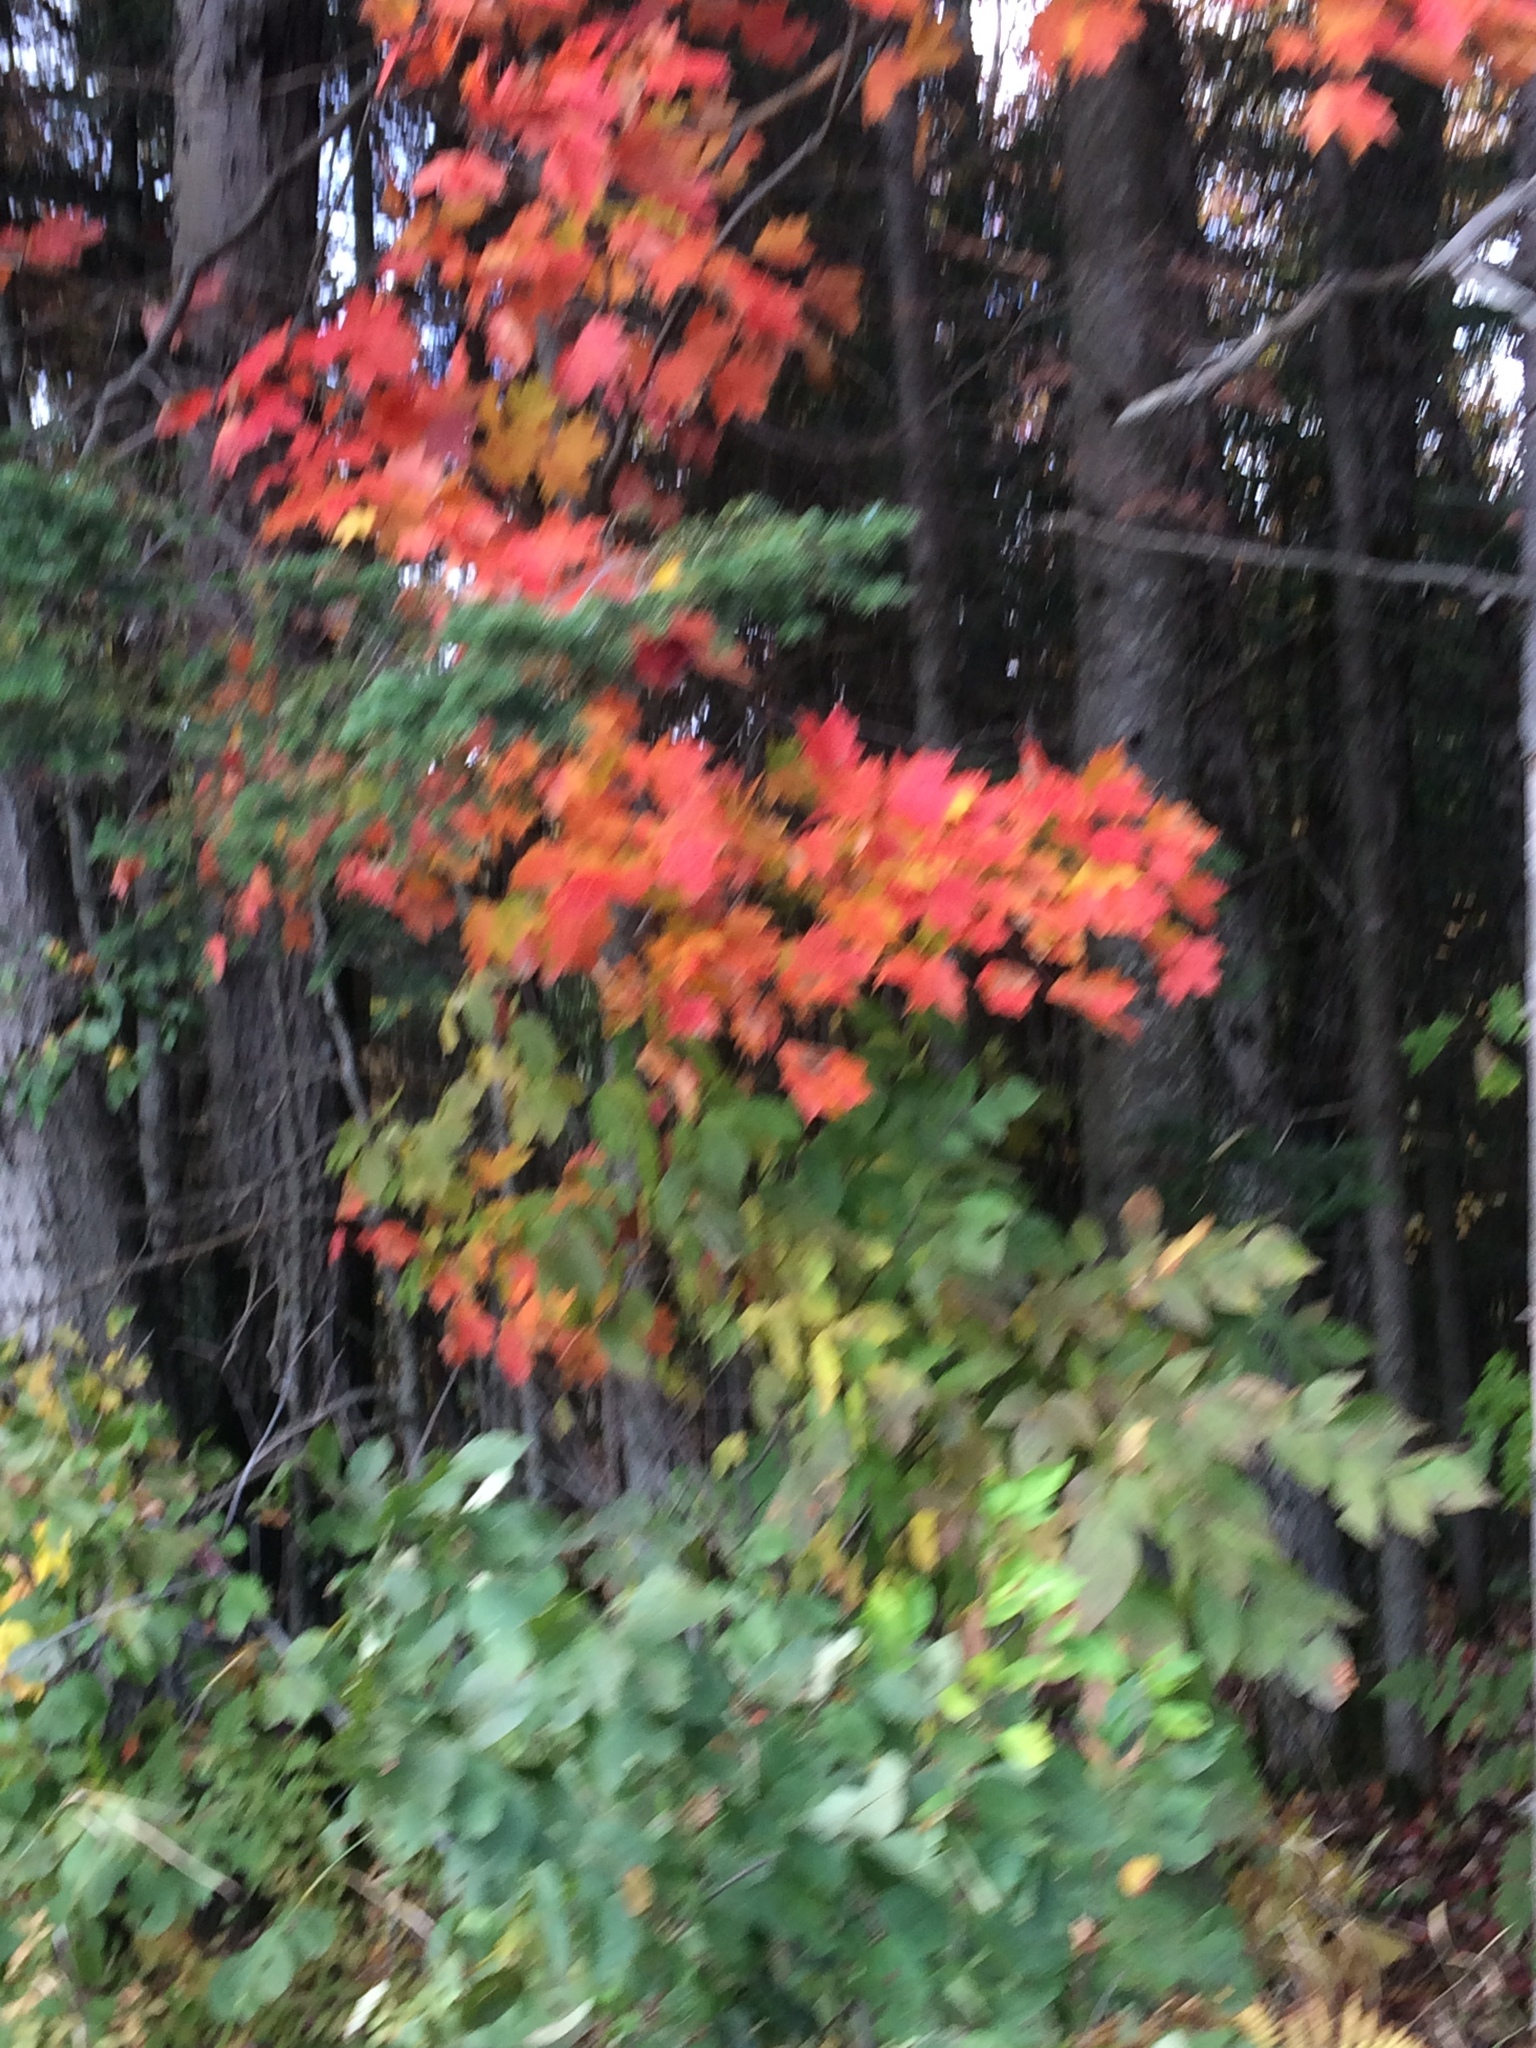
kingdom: Plantae
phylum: Tracheophyta
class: Magnoliopsida
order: Sapindales
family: Sapindaceae
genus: Acer
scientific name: Acer saccharum
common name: Sugar maple
